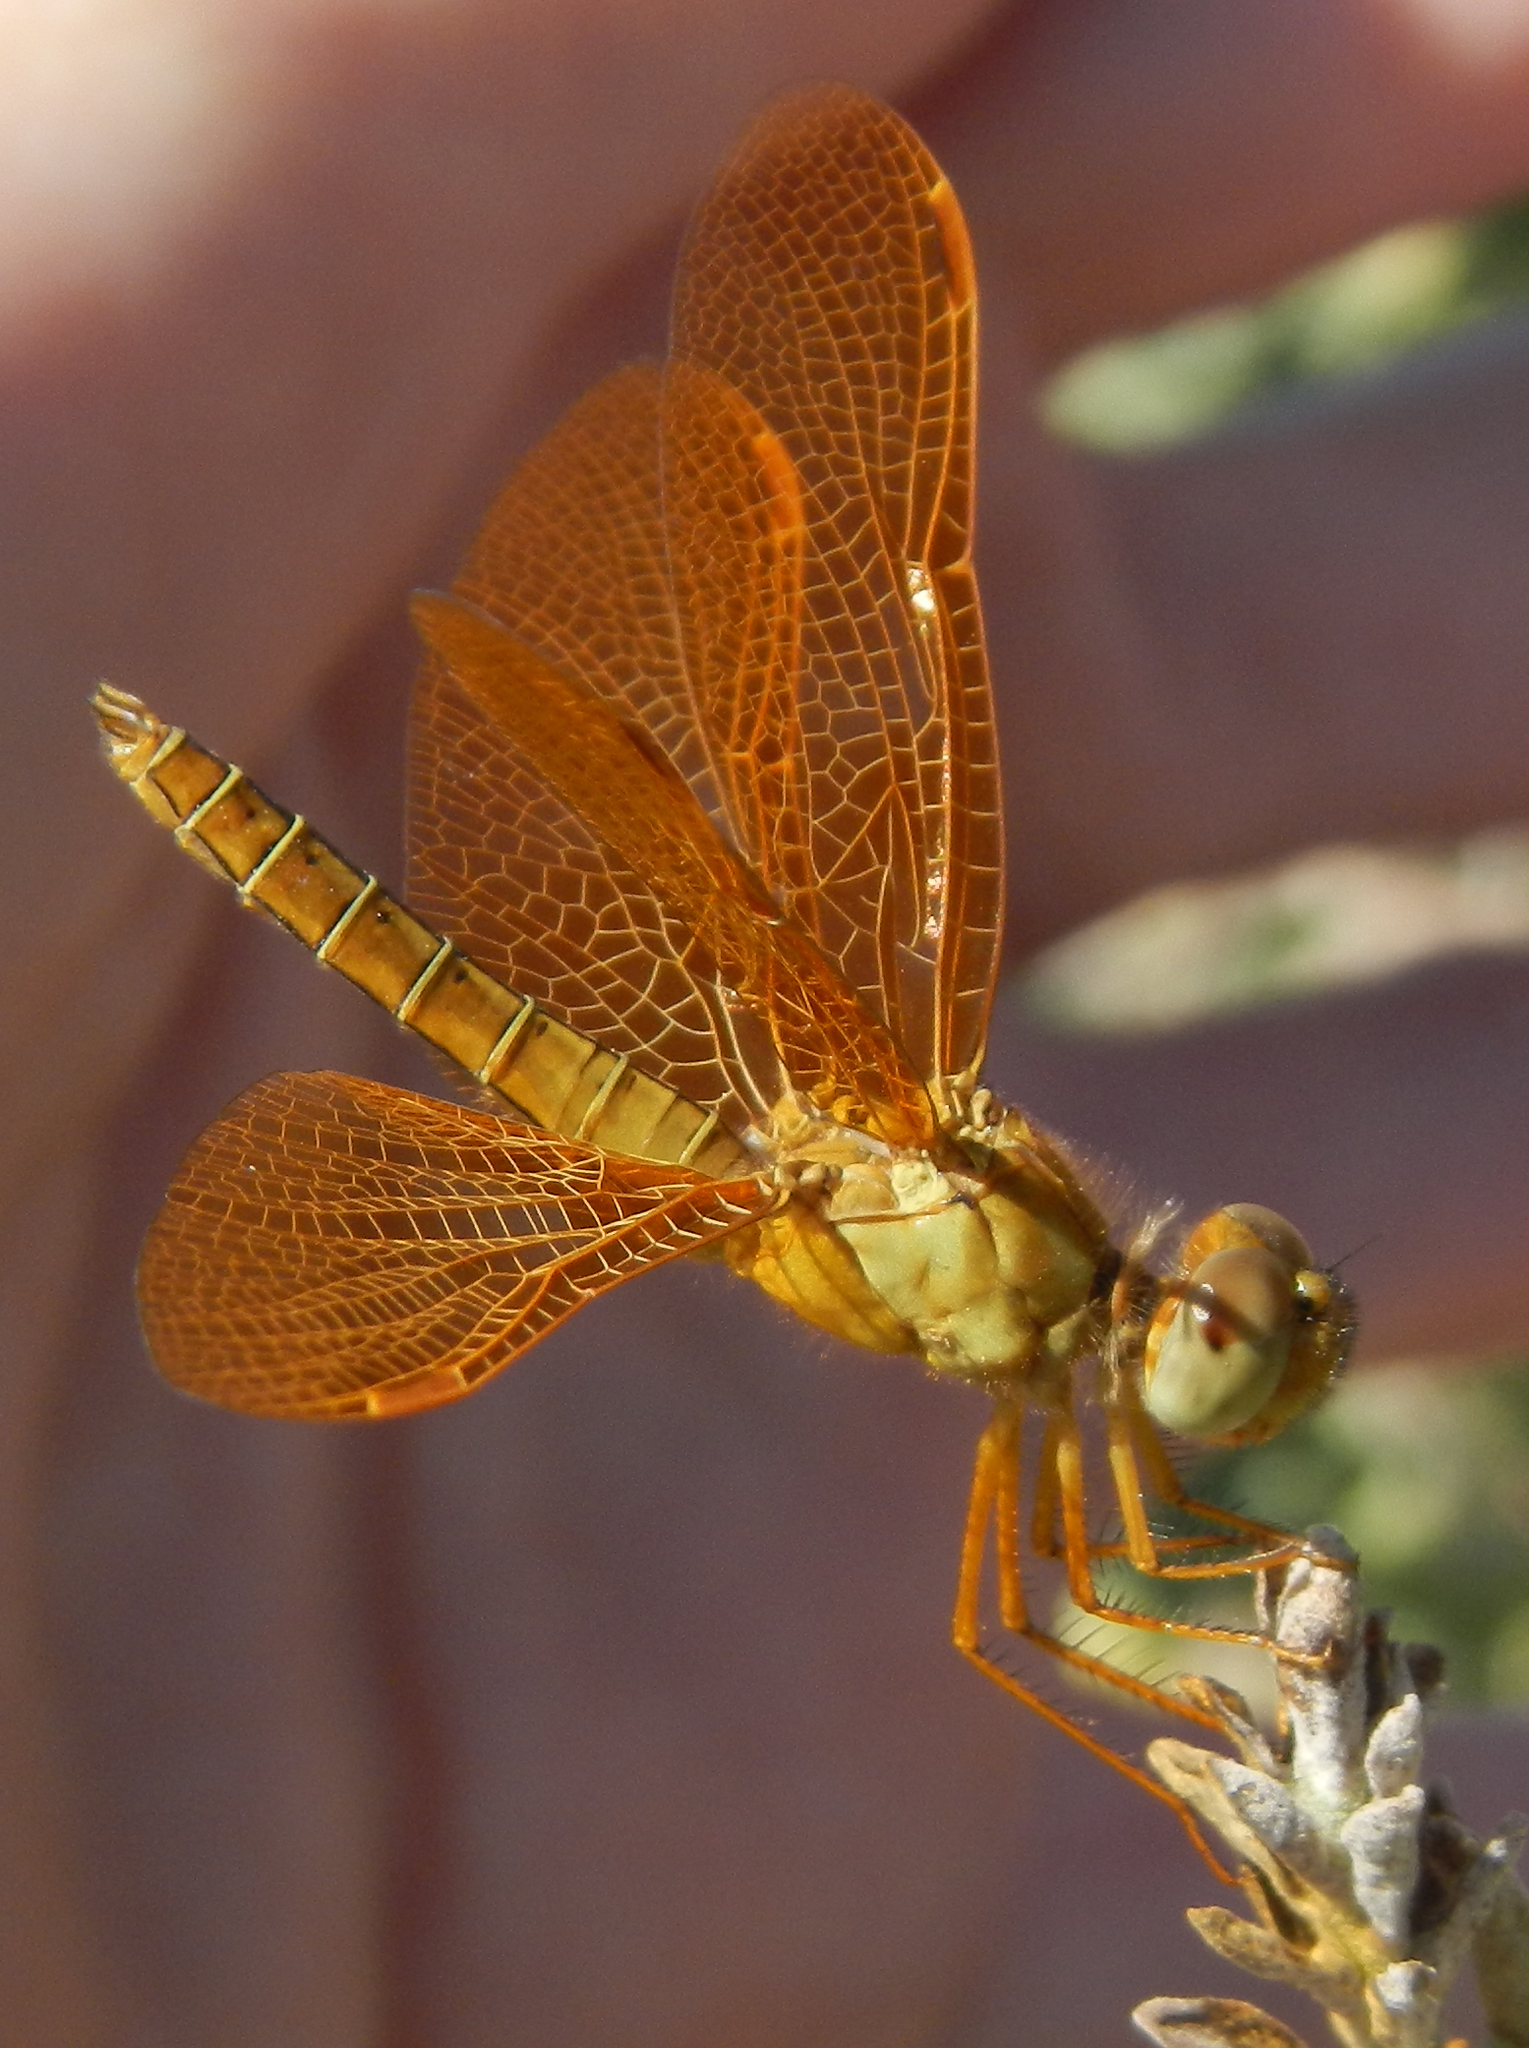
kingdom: Animalia
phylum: Arthropoda
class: Insecta
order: Odonata
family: Libellulidae
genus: Perithemis
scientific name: Perithemis intensa
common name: Mexican amberwing
